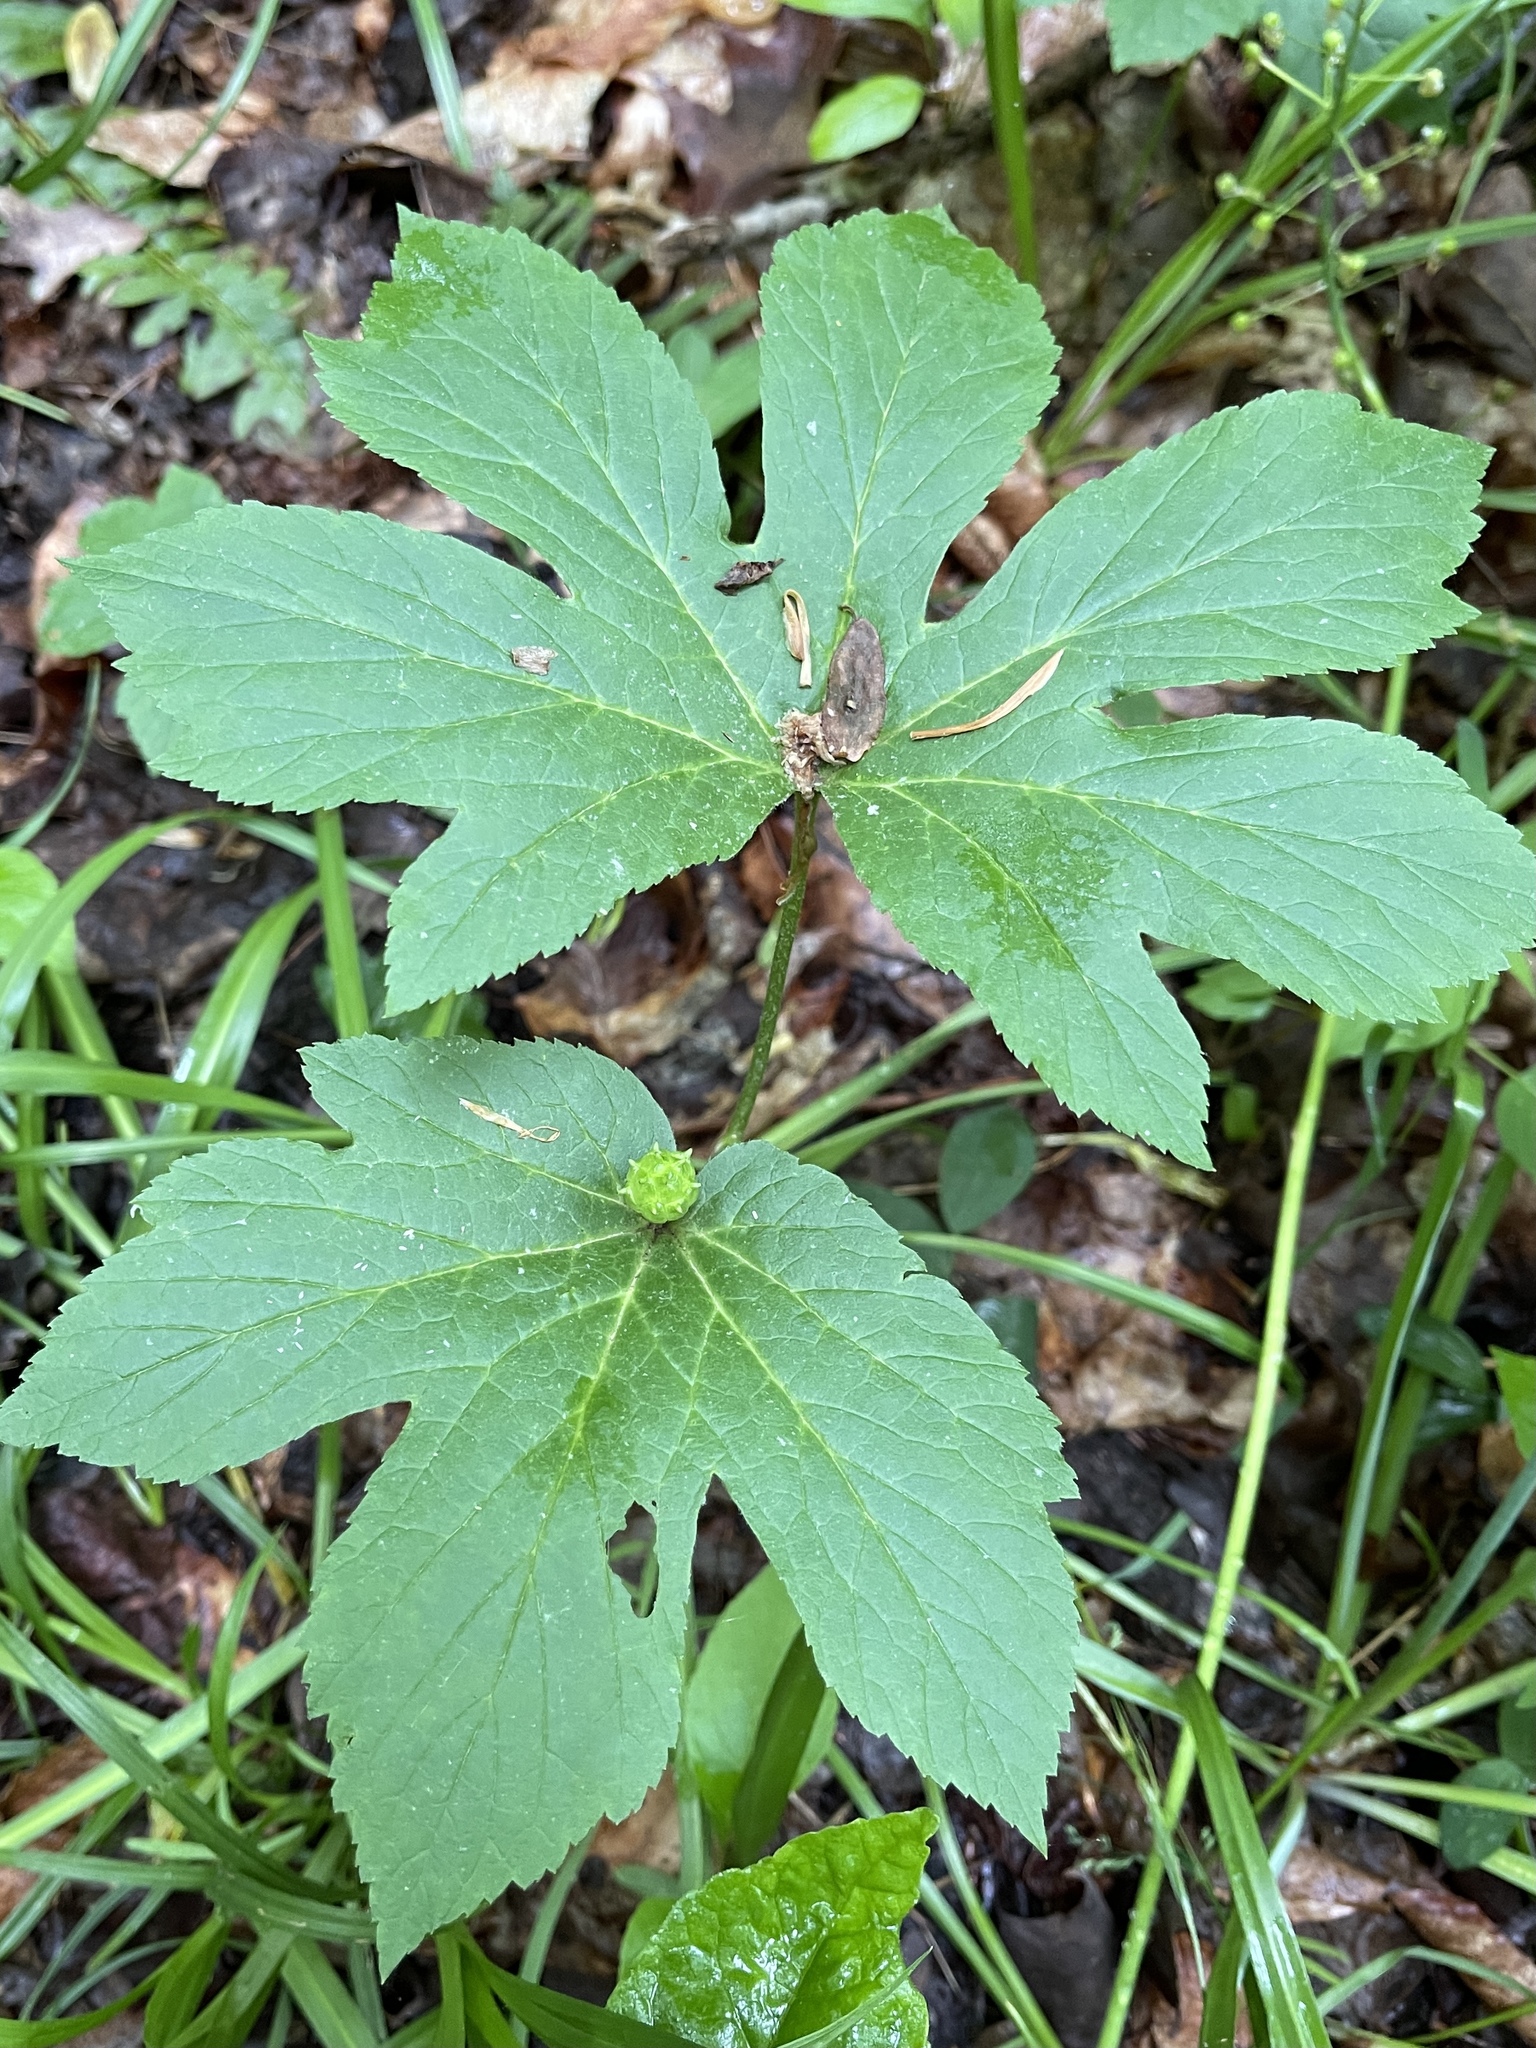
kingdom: Plantae
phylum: Tracheophyta
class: Magnoliopsida
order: Ranunculales
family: Ranunculaceae
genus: Hydrastis
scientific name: Hydrastis canadensis
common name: Goldenseal
